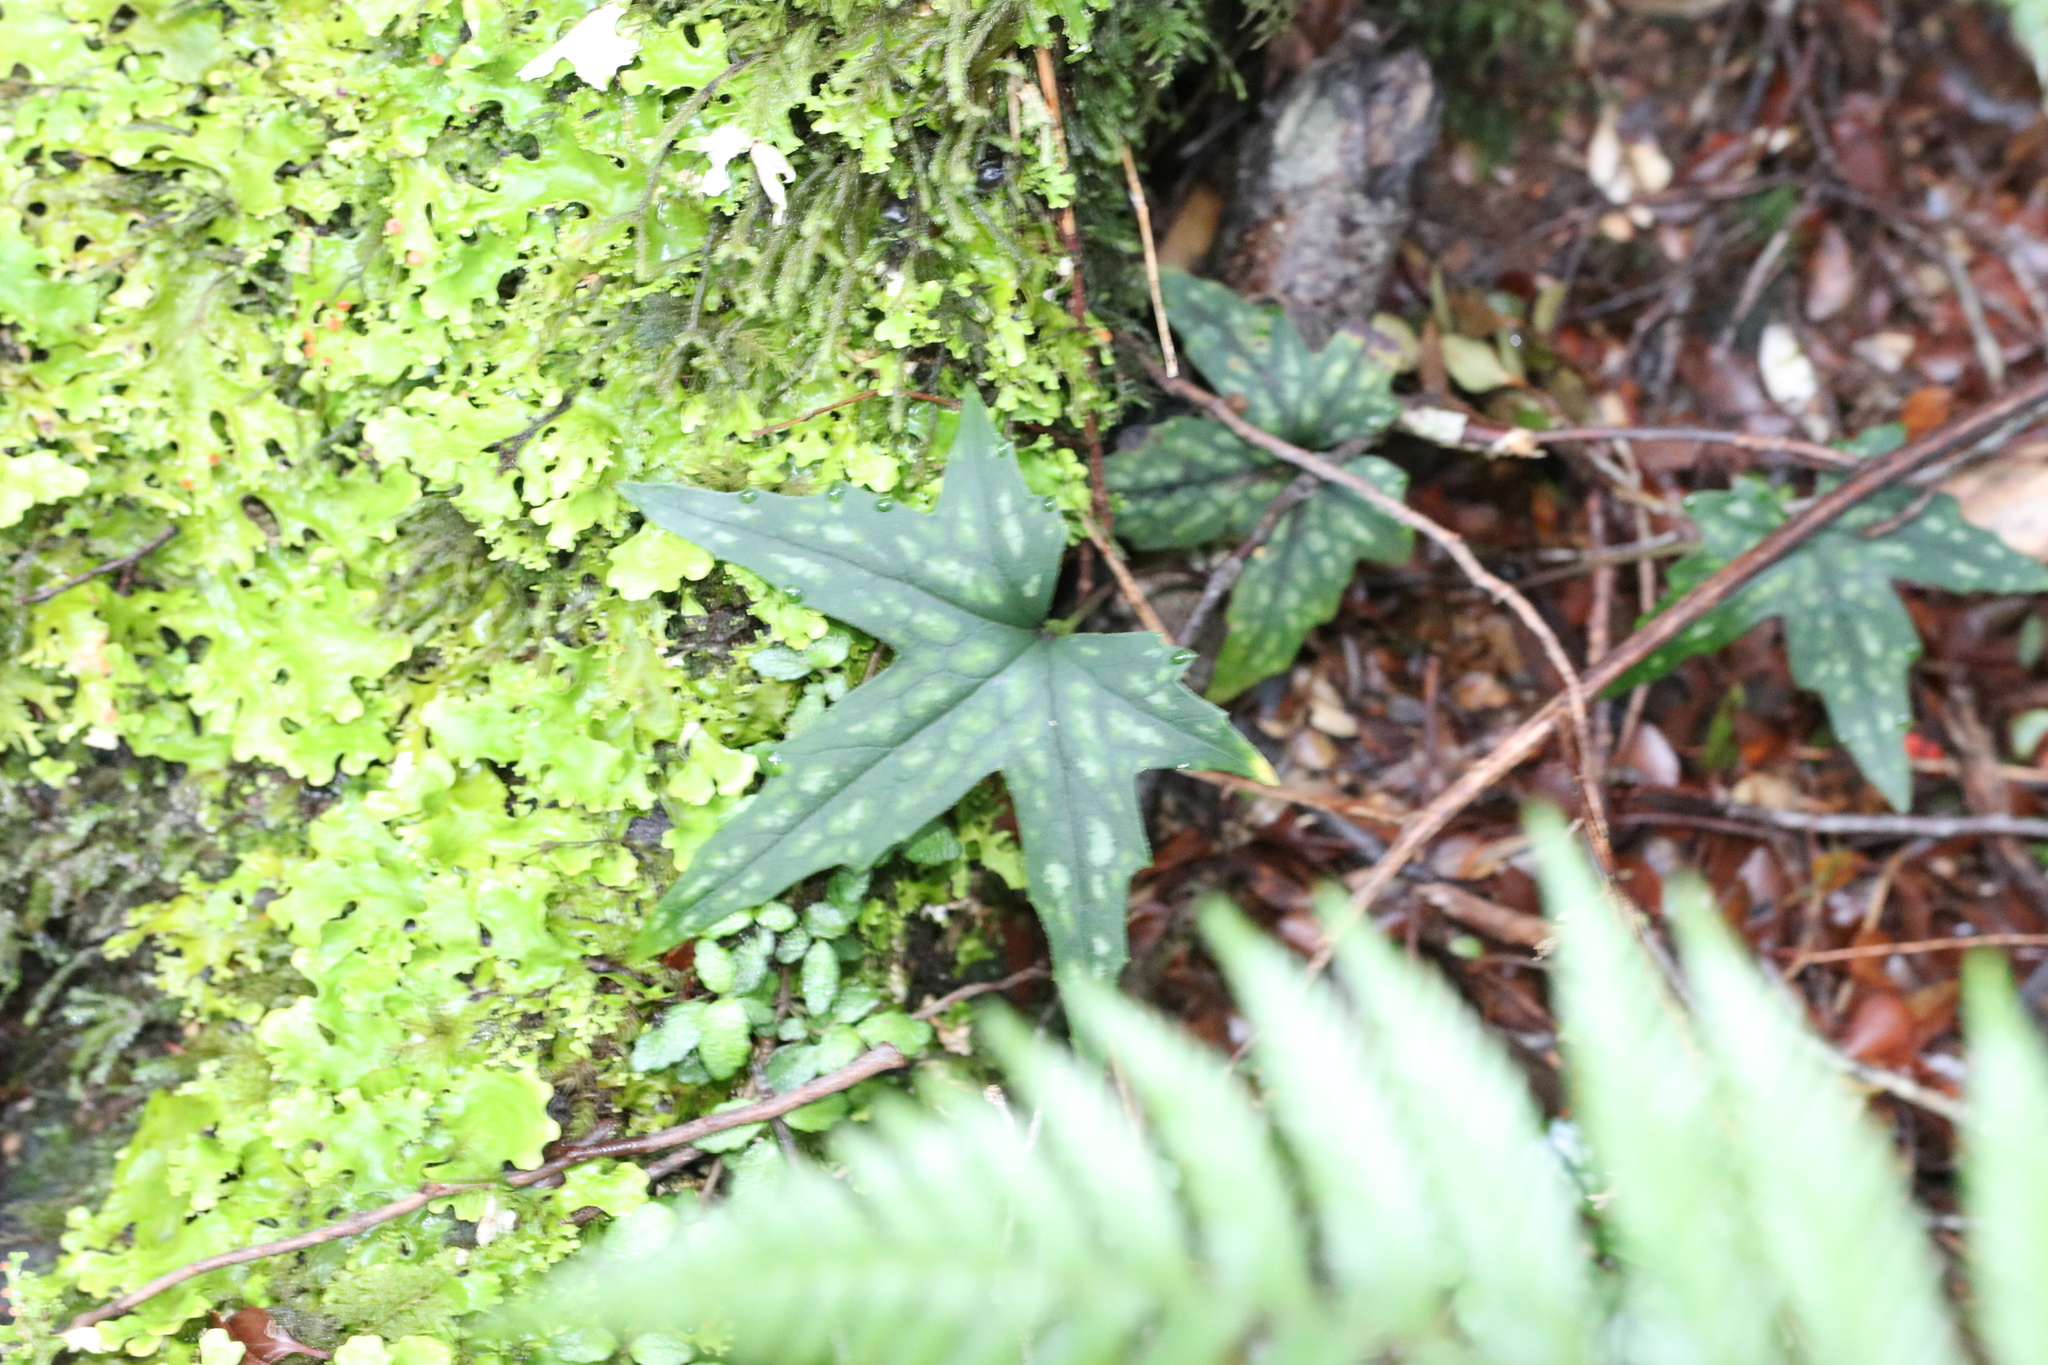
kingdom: Plantae
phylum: Tracheophyta
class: Magnoliopsida
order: Ranunculales
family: Ranunculaceae
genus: Knowltonia
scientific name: Knowltonia hepaticifolia
